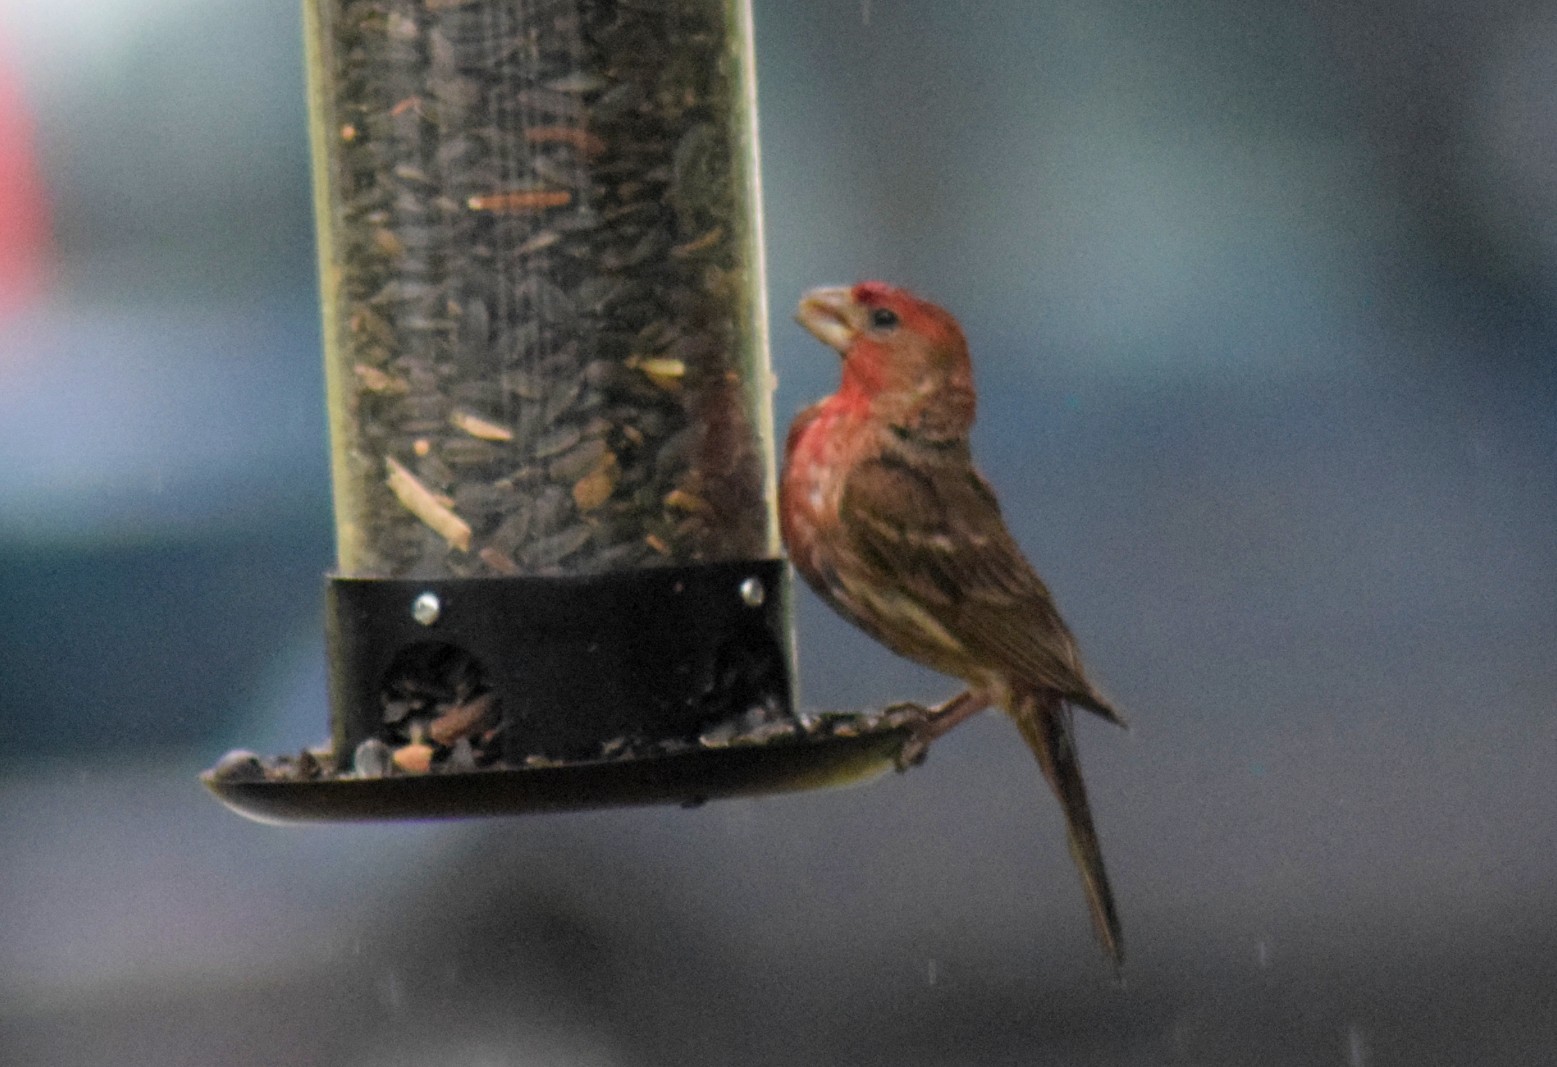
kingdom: Animalia
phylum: Chordata
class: Aves
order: Passeriformes
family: Fringillidae
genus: Haemorhous
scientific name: Haemorhous mexicanus
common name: House finch
